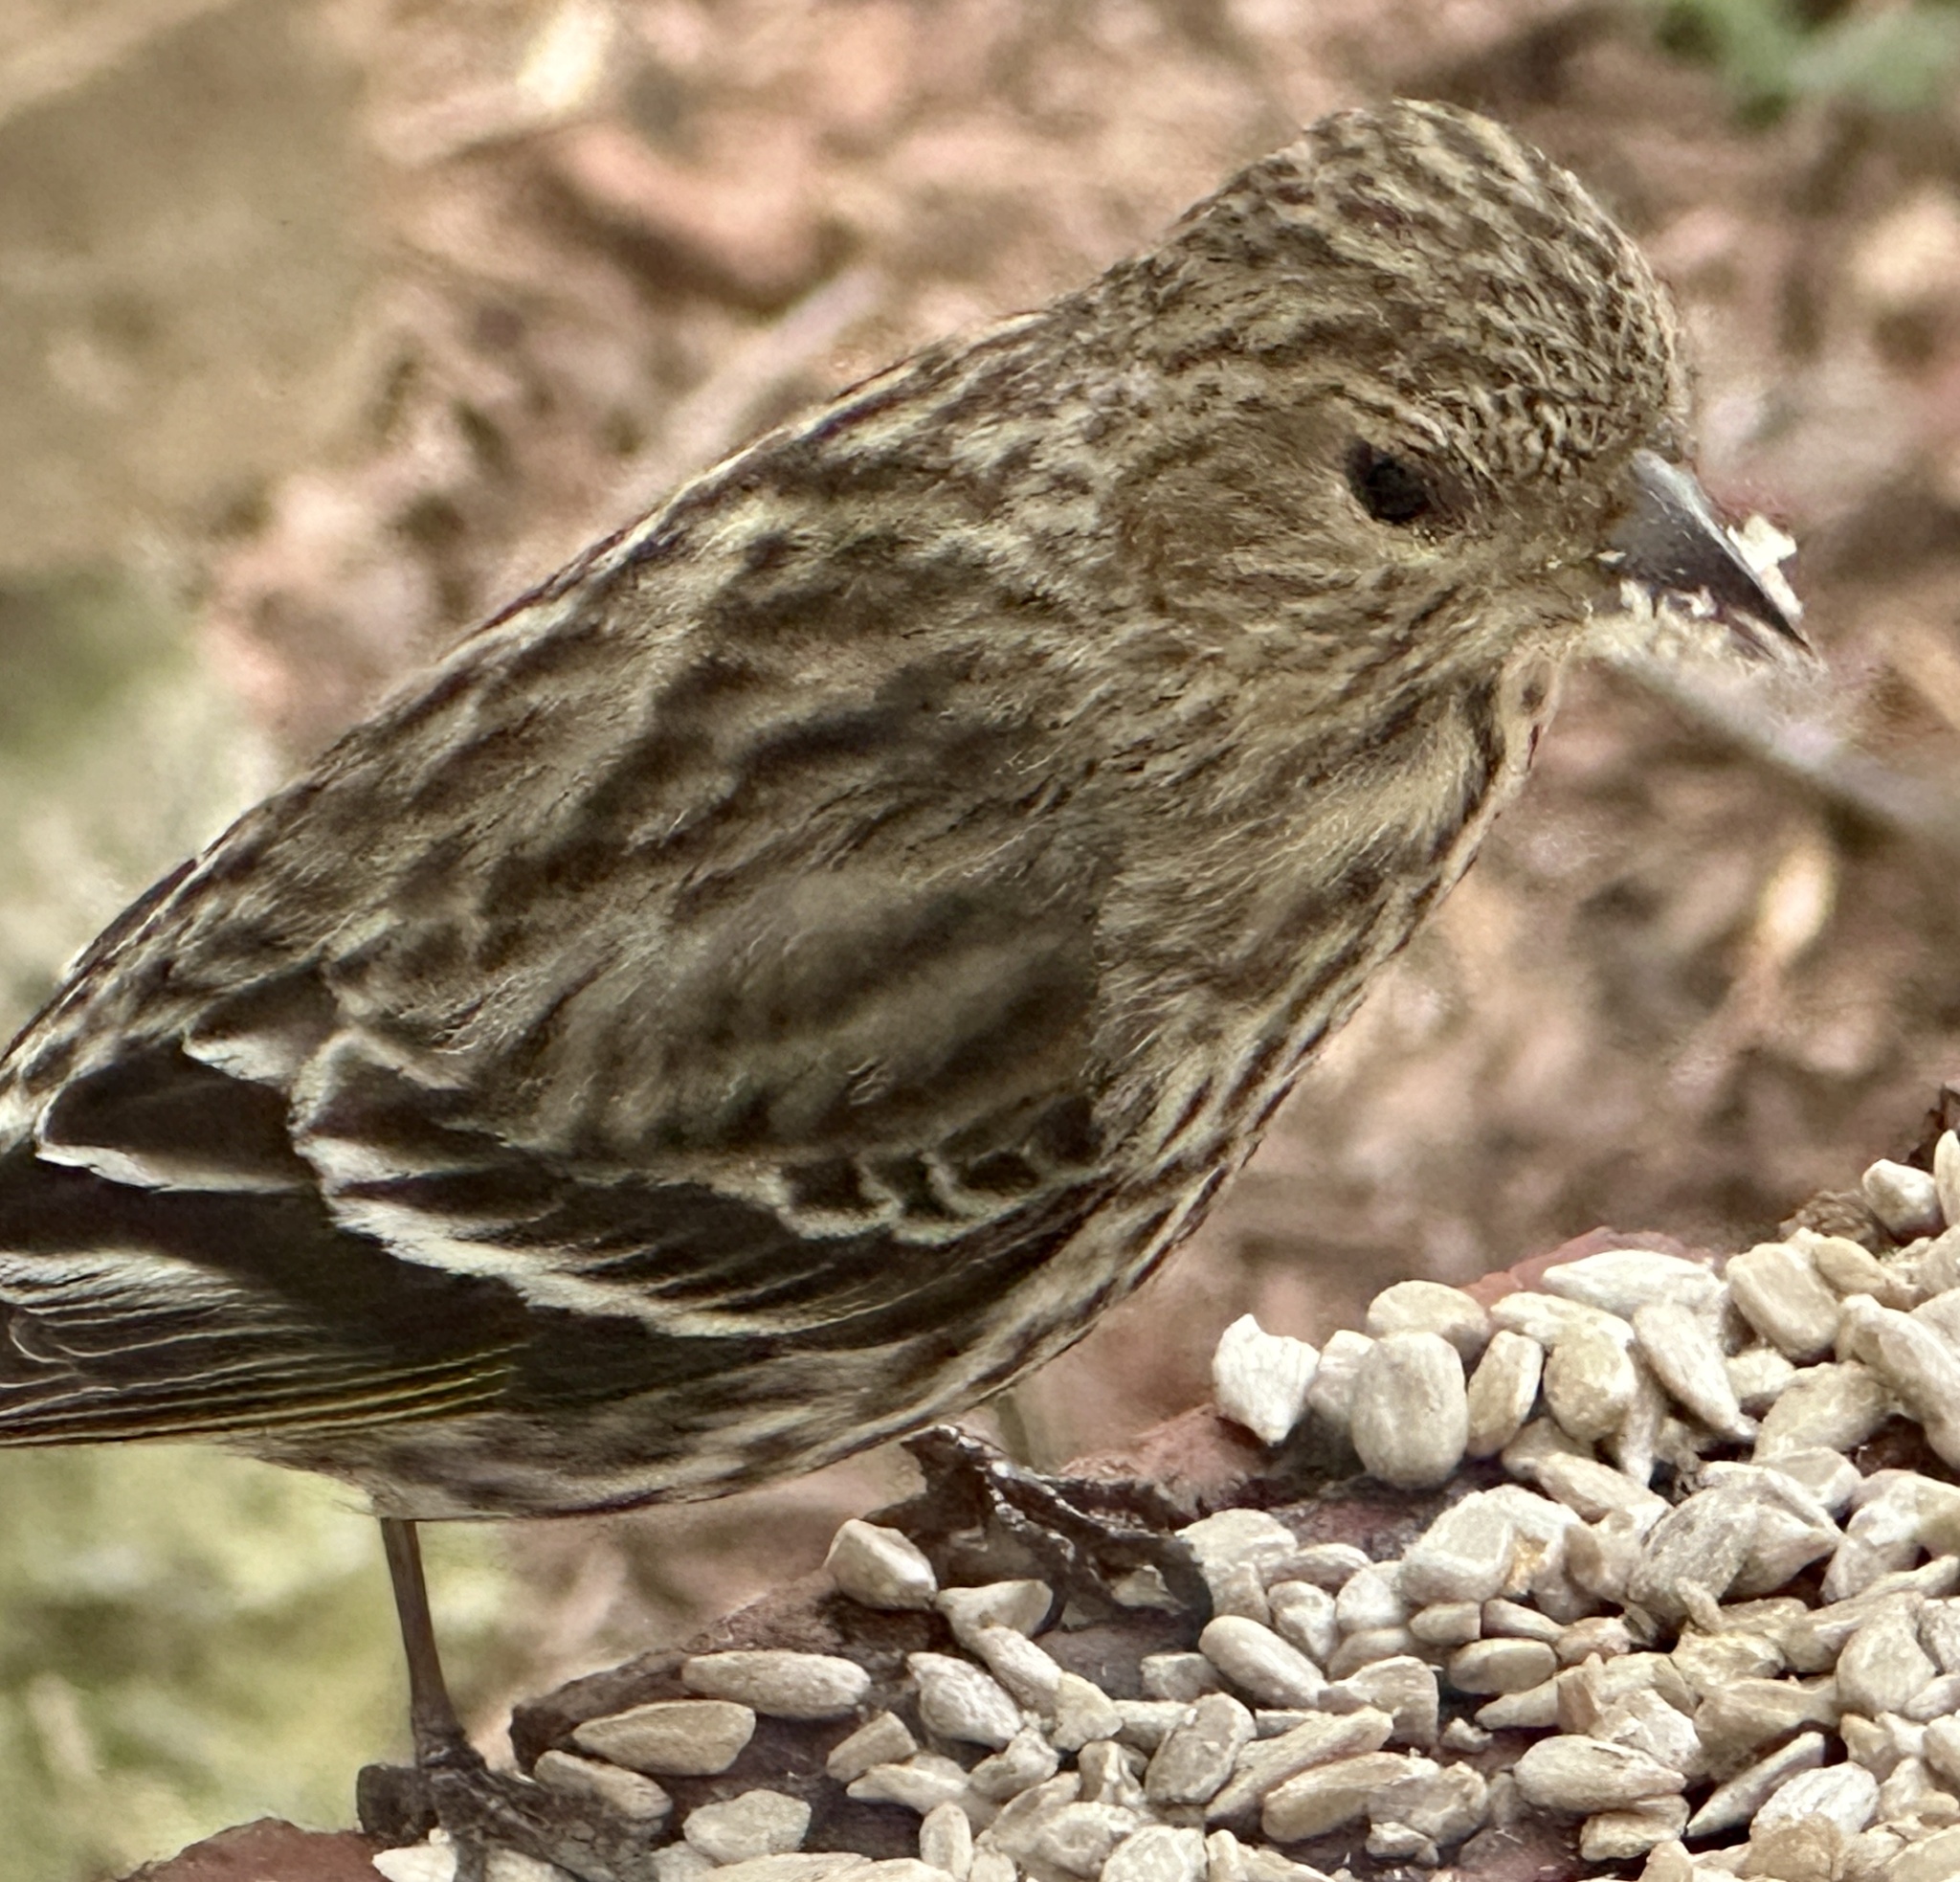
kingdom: Animalia
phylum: Chordata
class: Aves
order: Passeriformes
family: Fringillidae
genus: Spinus
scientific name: Spinus pinus
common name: Pine siskin
